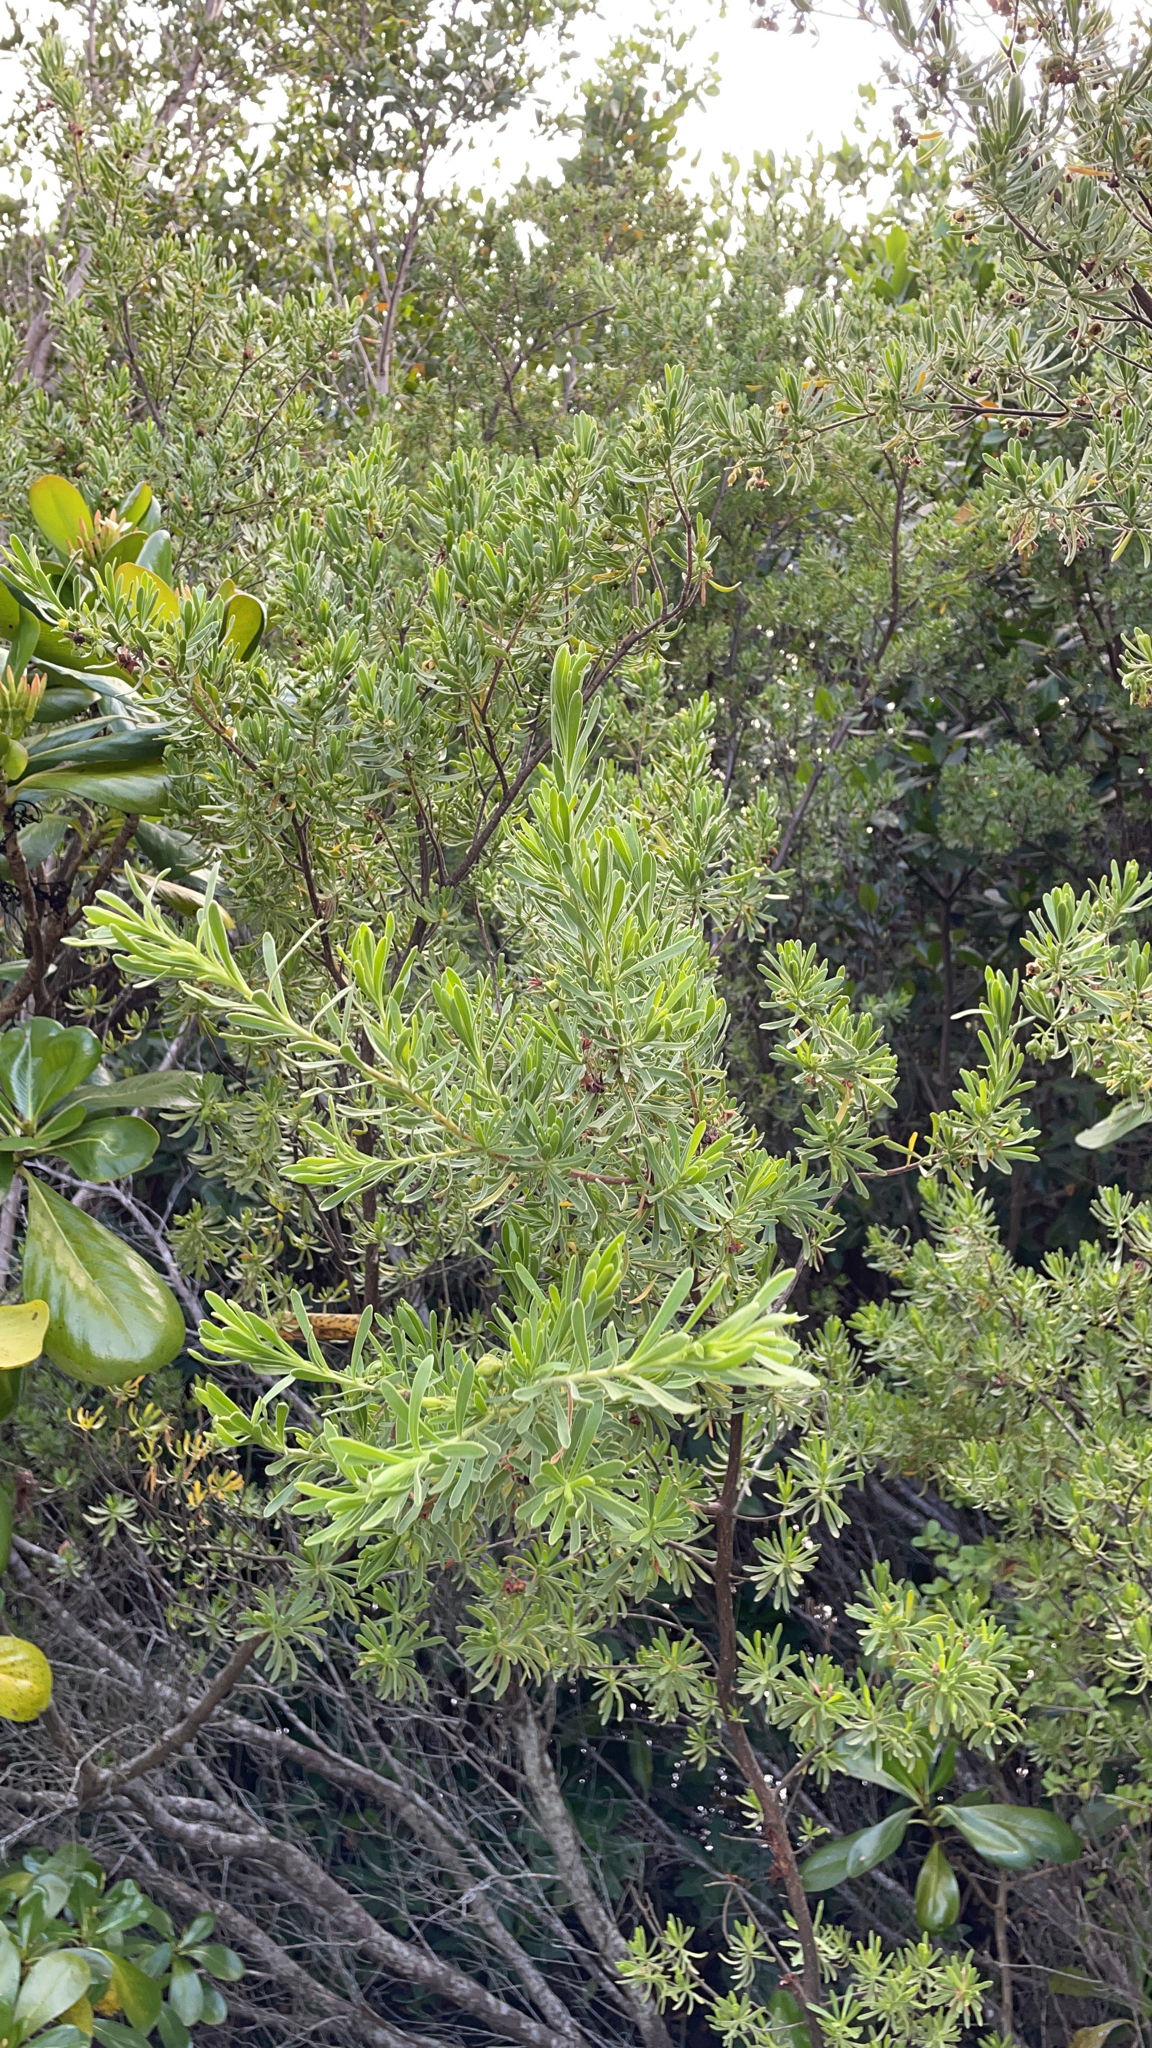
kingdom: Plantae
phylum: Tracheophyta
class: Magnoliopsida
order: Fabales
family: Surianaceae
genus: Suriana
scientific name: Suriana maritima
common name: Bay-cedar
